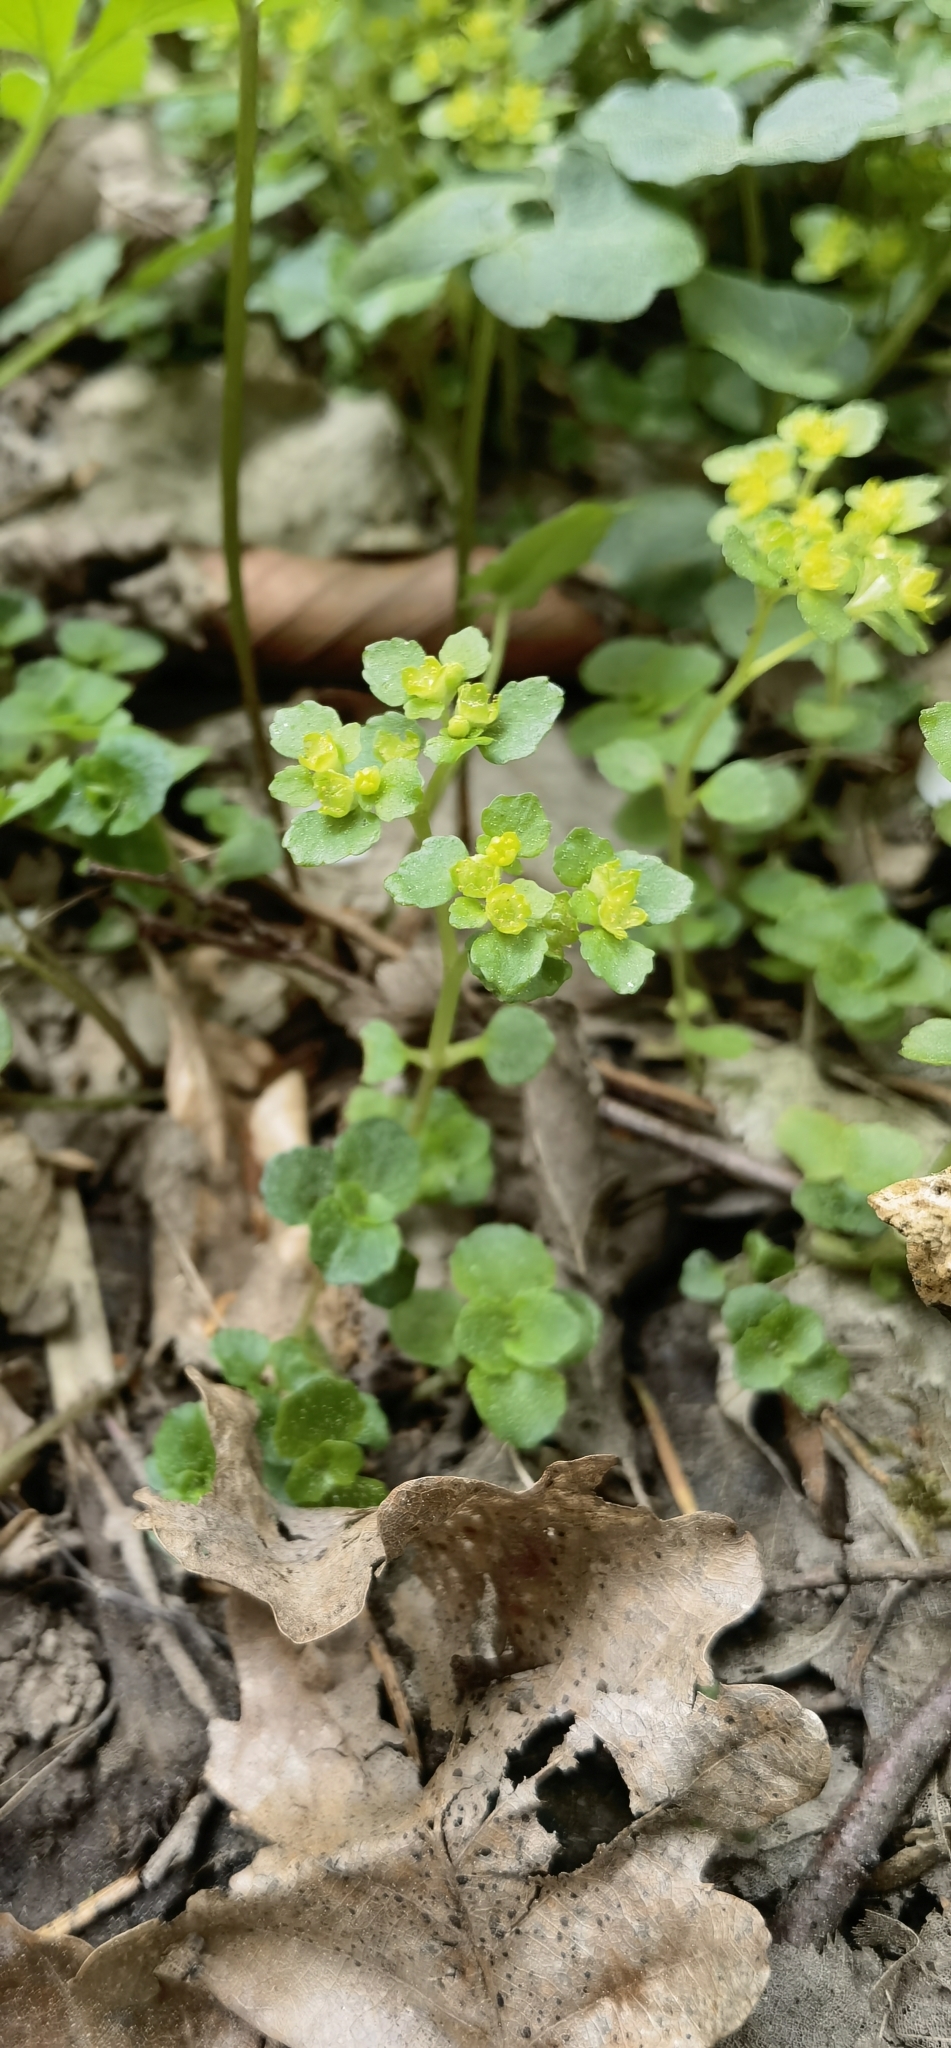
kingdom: Plantae
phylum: Tracheophyta
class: Magnoliopsida
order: Saxifragales
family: Saxifragaceae
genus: Chrysosplenium
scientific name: Chrysosplenium oppositifolium
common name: Opposite-leaved golden-saxifrage
